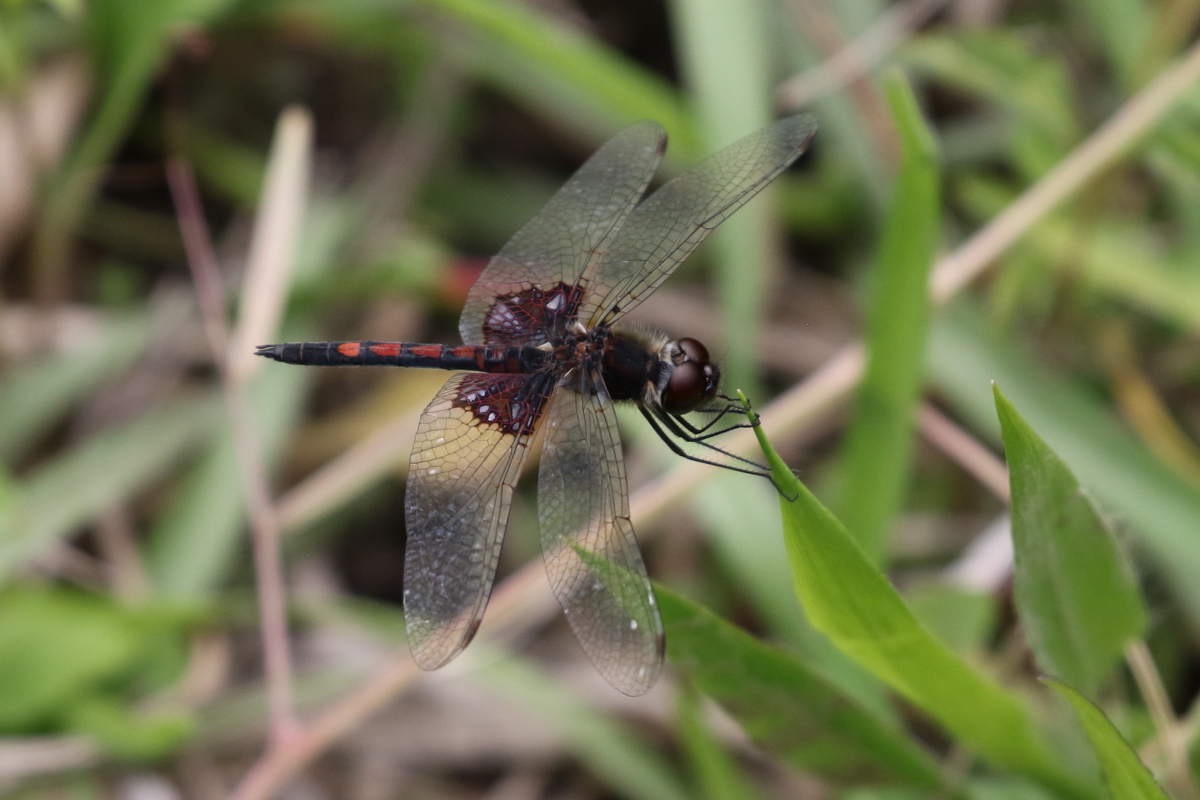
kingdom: Animalia
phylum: Arthropoda
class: Insecta
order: Odonata
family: Libellulidae
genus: Celithemis
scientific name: Celithemis ornata
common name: Ornate pennant
